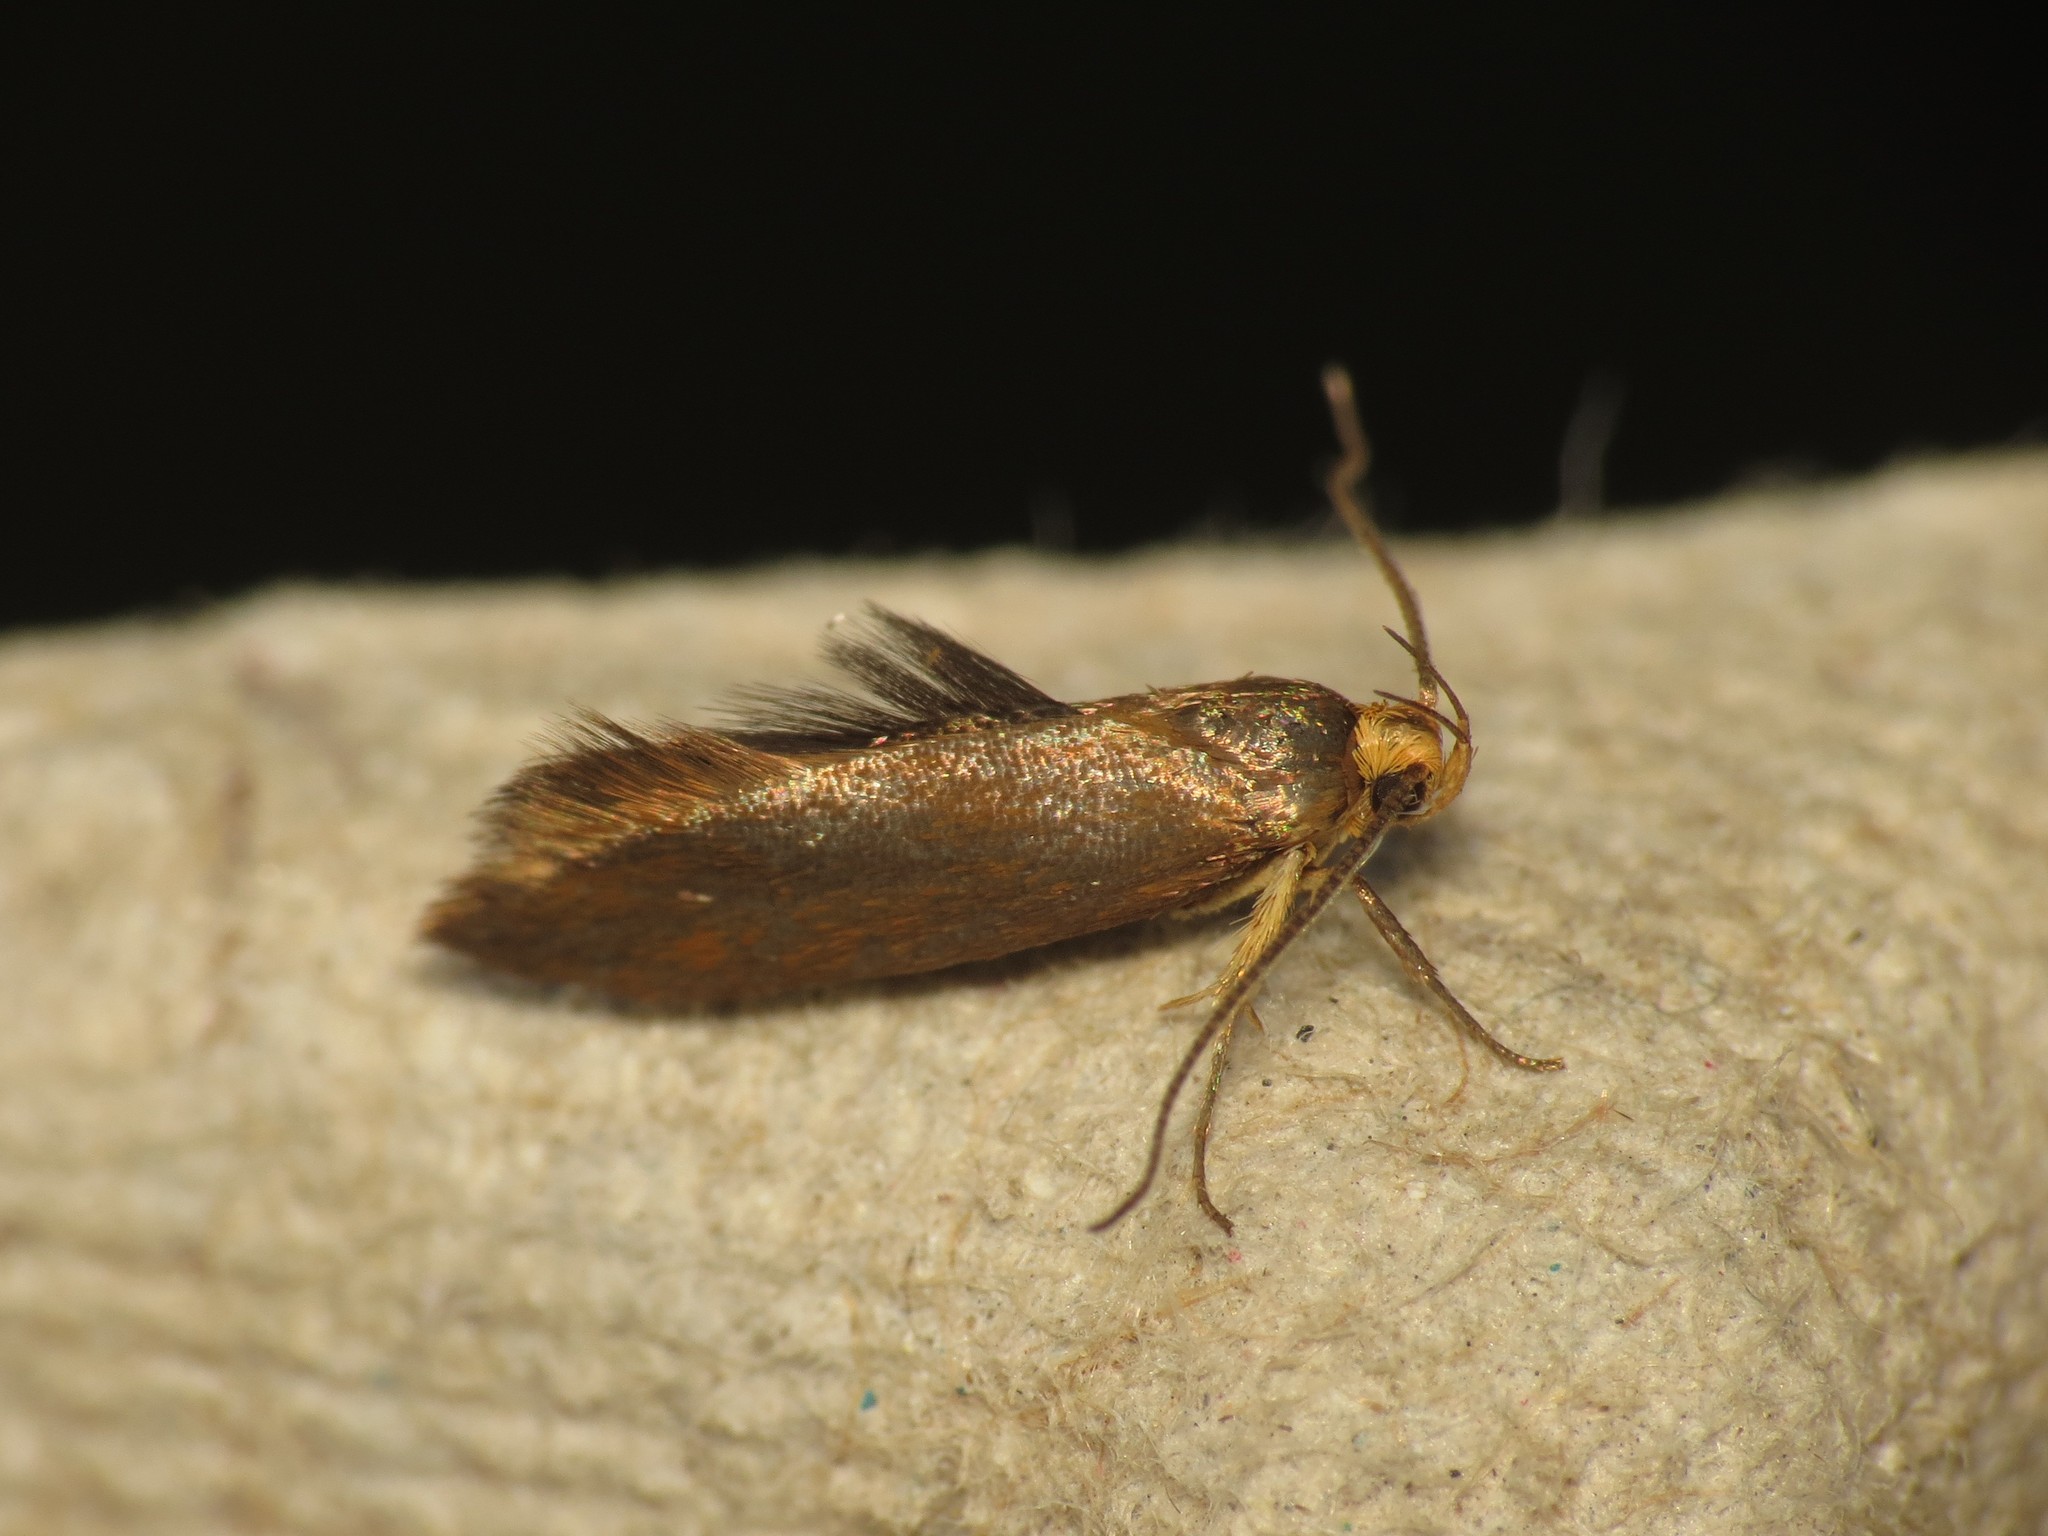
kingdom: Animalia
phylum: Arthropoda
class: Insecta
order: Lepidoptera
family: Oecophoridae
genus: Borkhausenia
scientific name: Borkhausenia Crassa unitella
